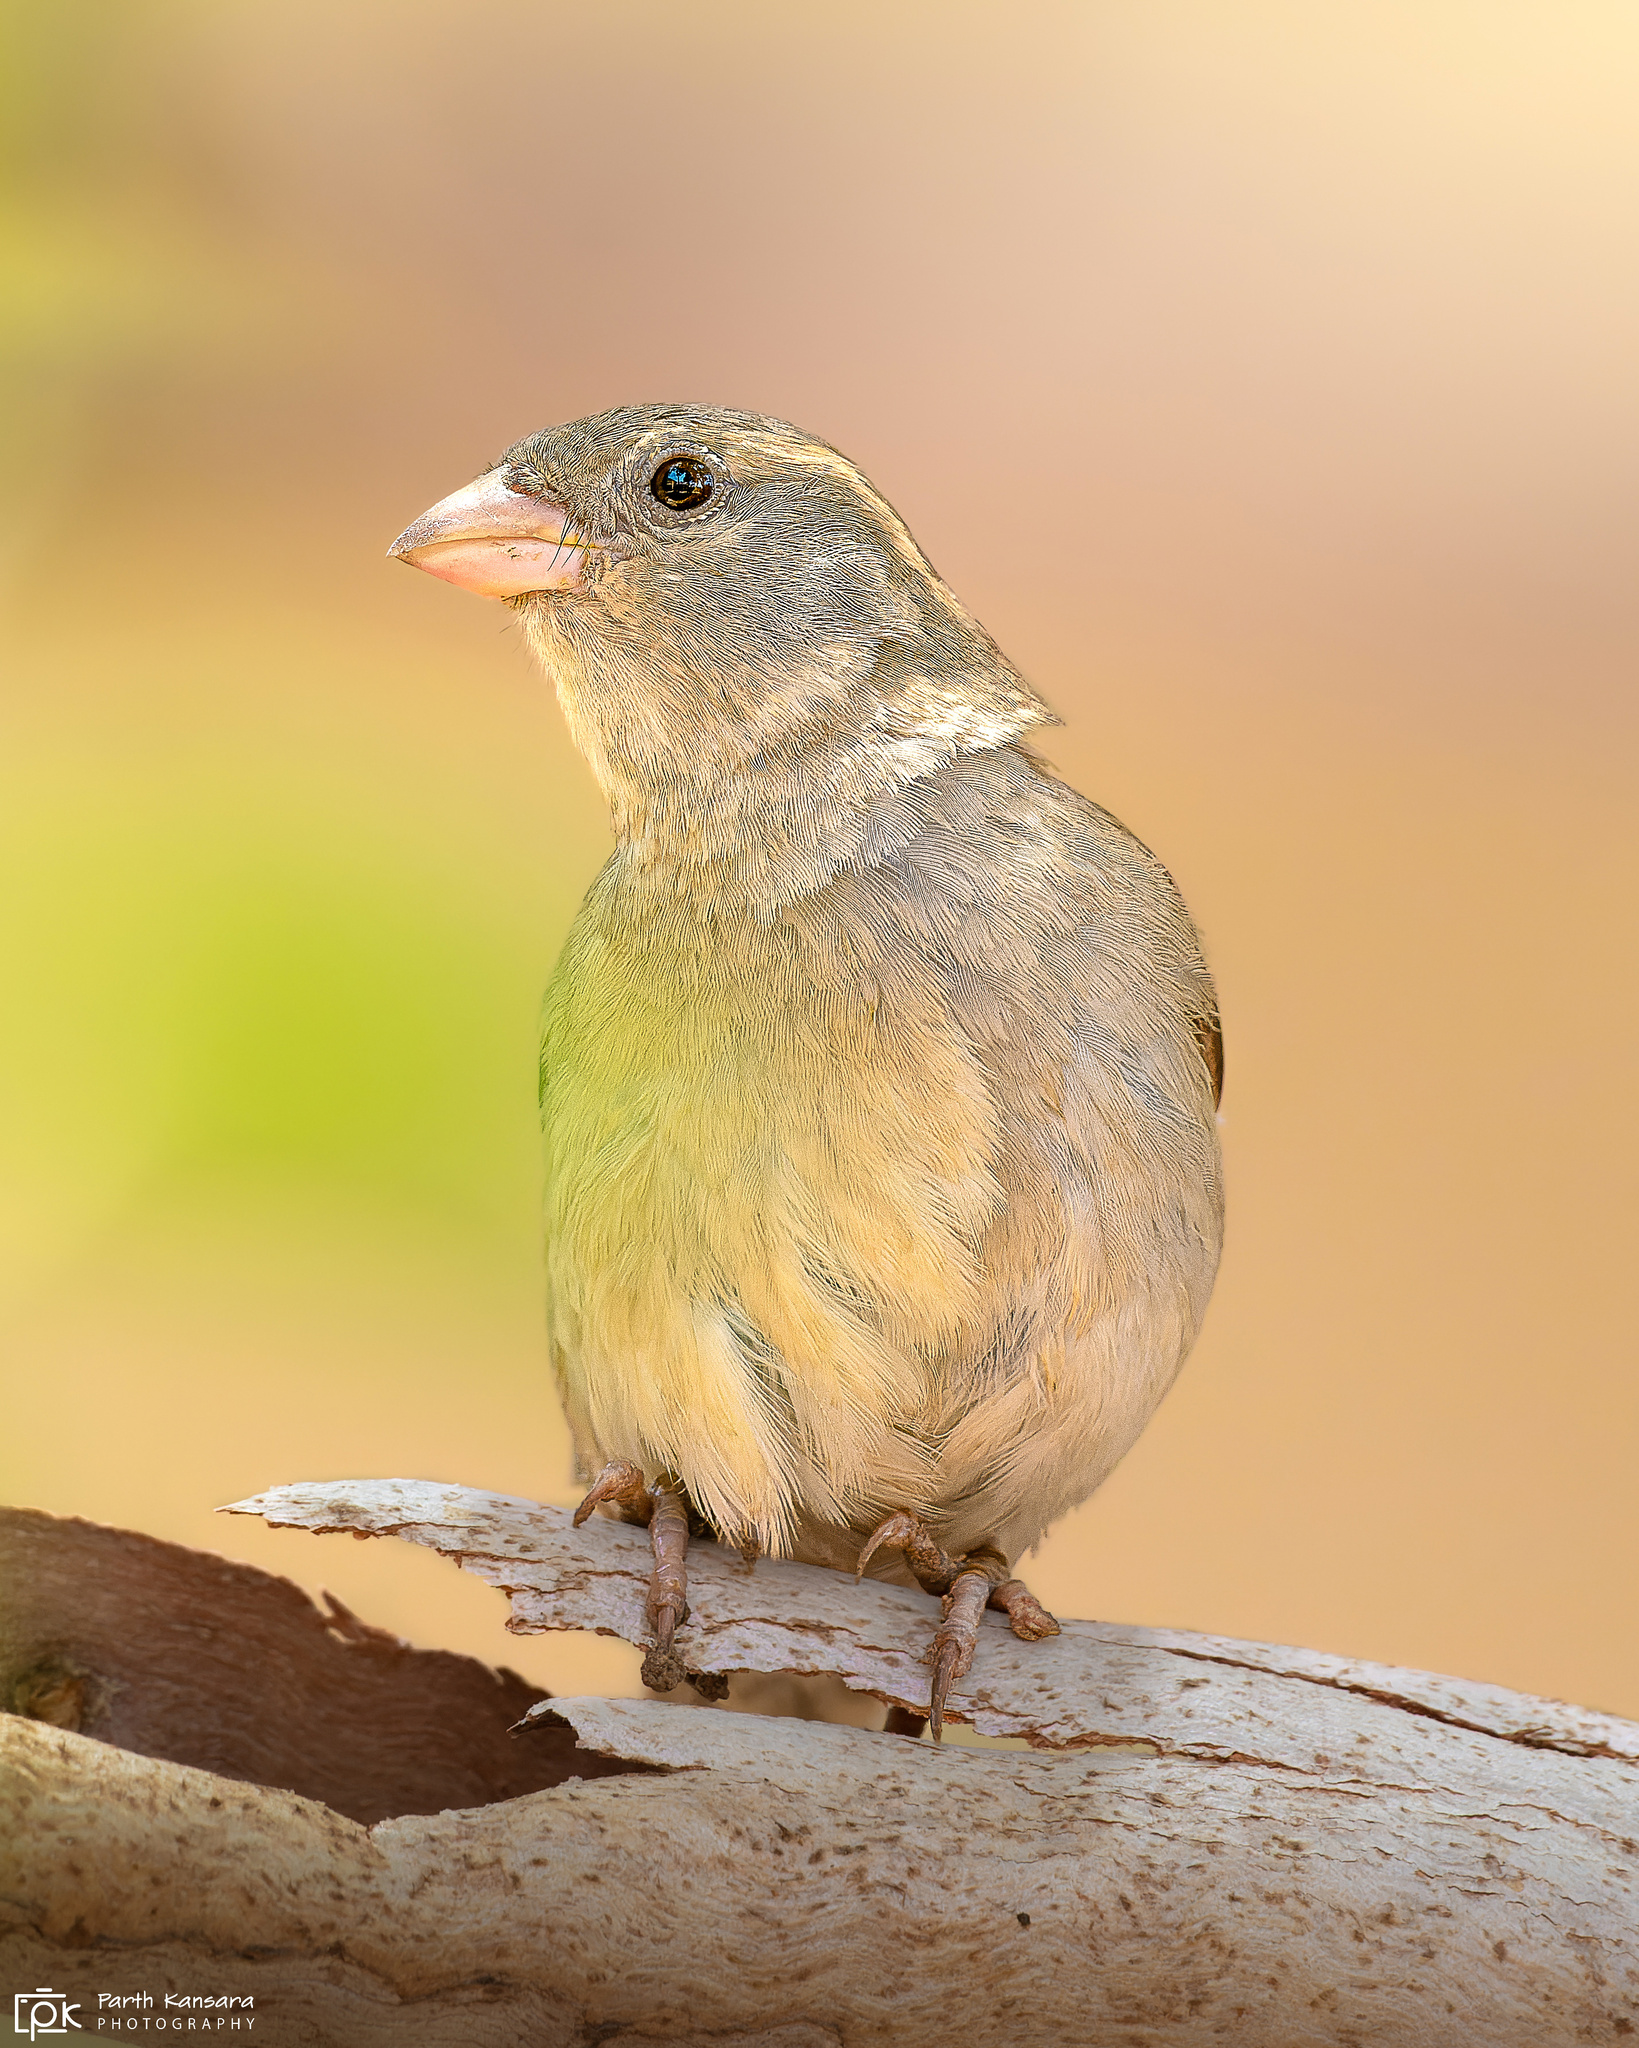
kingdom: Animalia
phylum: Chordata
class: Aves
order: Passeriformes
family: Passeridae
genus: Passer
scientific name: Passer domesticus
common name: House sparrow
